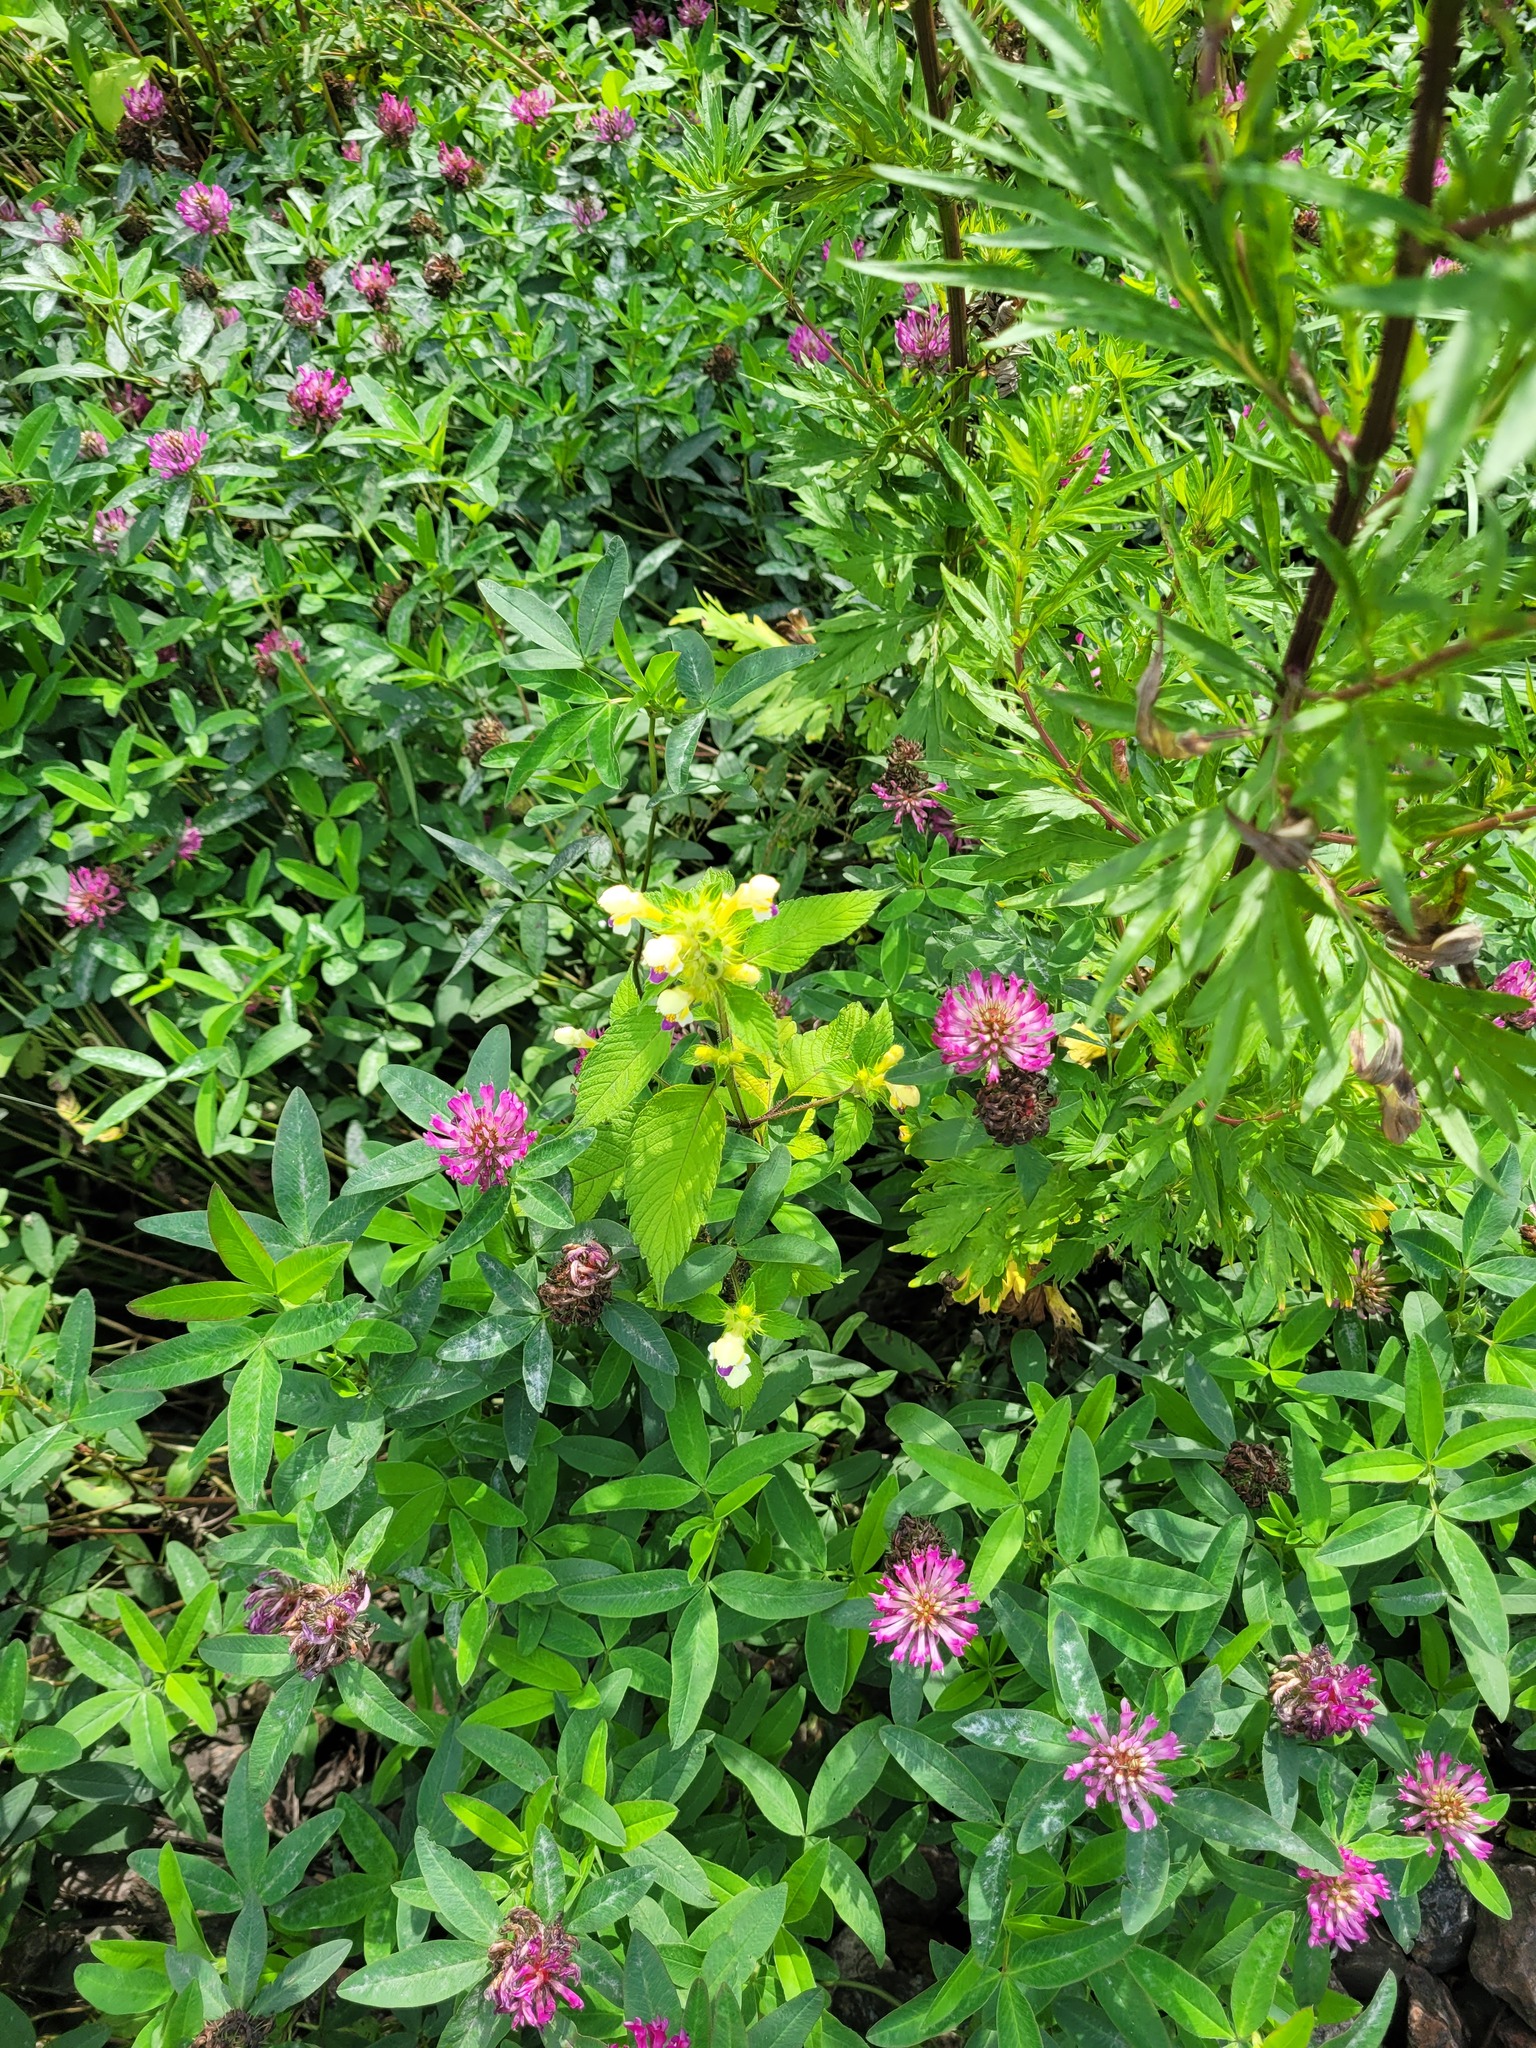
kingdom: Plantae
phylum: Tracheophyta
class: Magnoliopsida
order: Lamiales
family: Lamiaceae
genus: Galeopsis
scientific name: Galeopsis speciosa
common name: Large-flowered hemp-nettle
